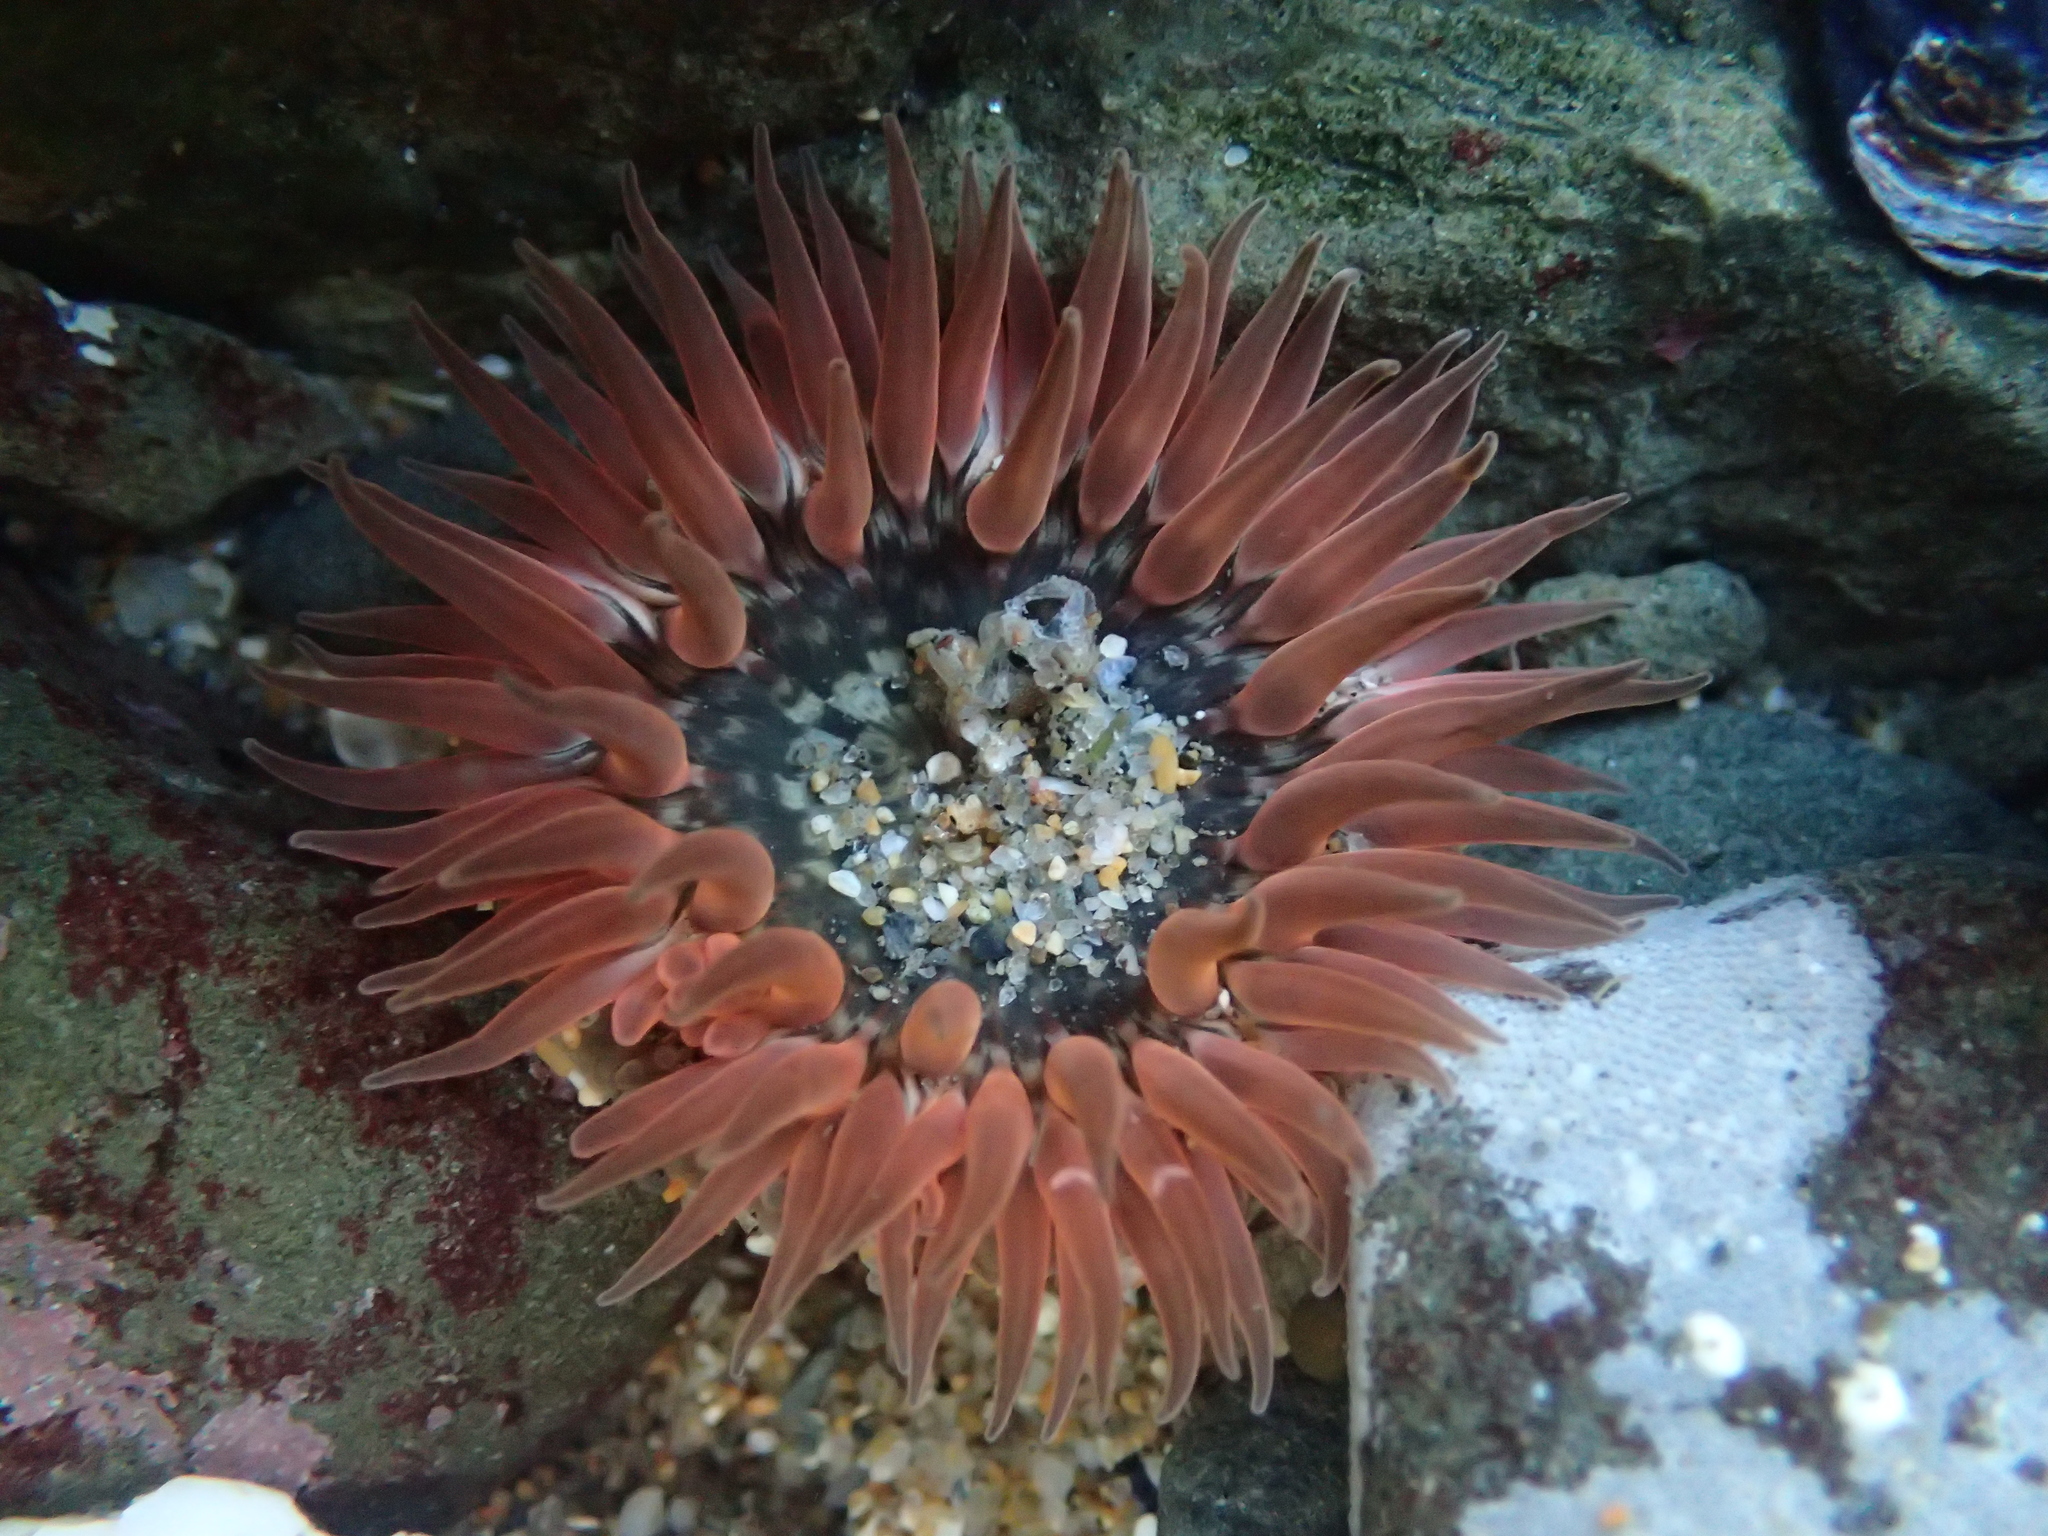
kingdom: Animalia
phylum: Cnidaria
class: Anthozoa
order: Actiniaria
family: Actiniidae
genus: Anthopleura
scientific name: Anthopleura artemisia
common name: Buried sea anemone
